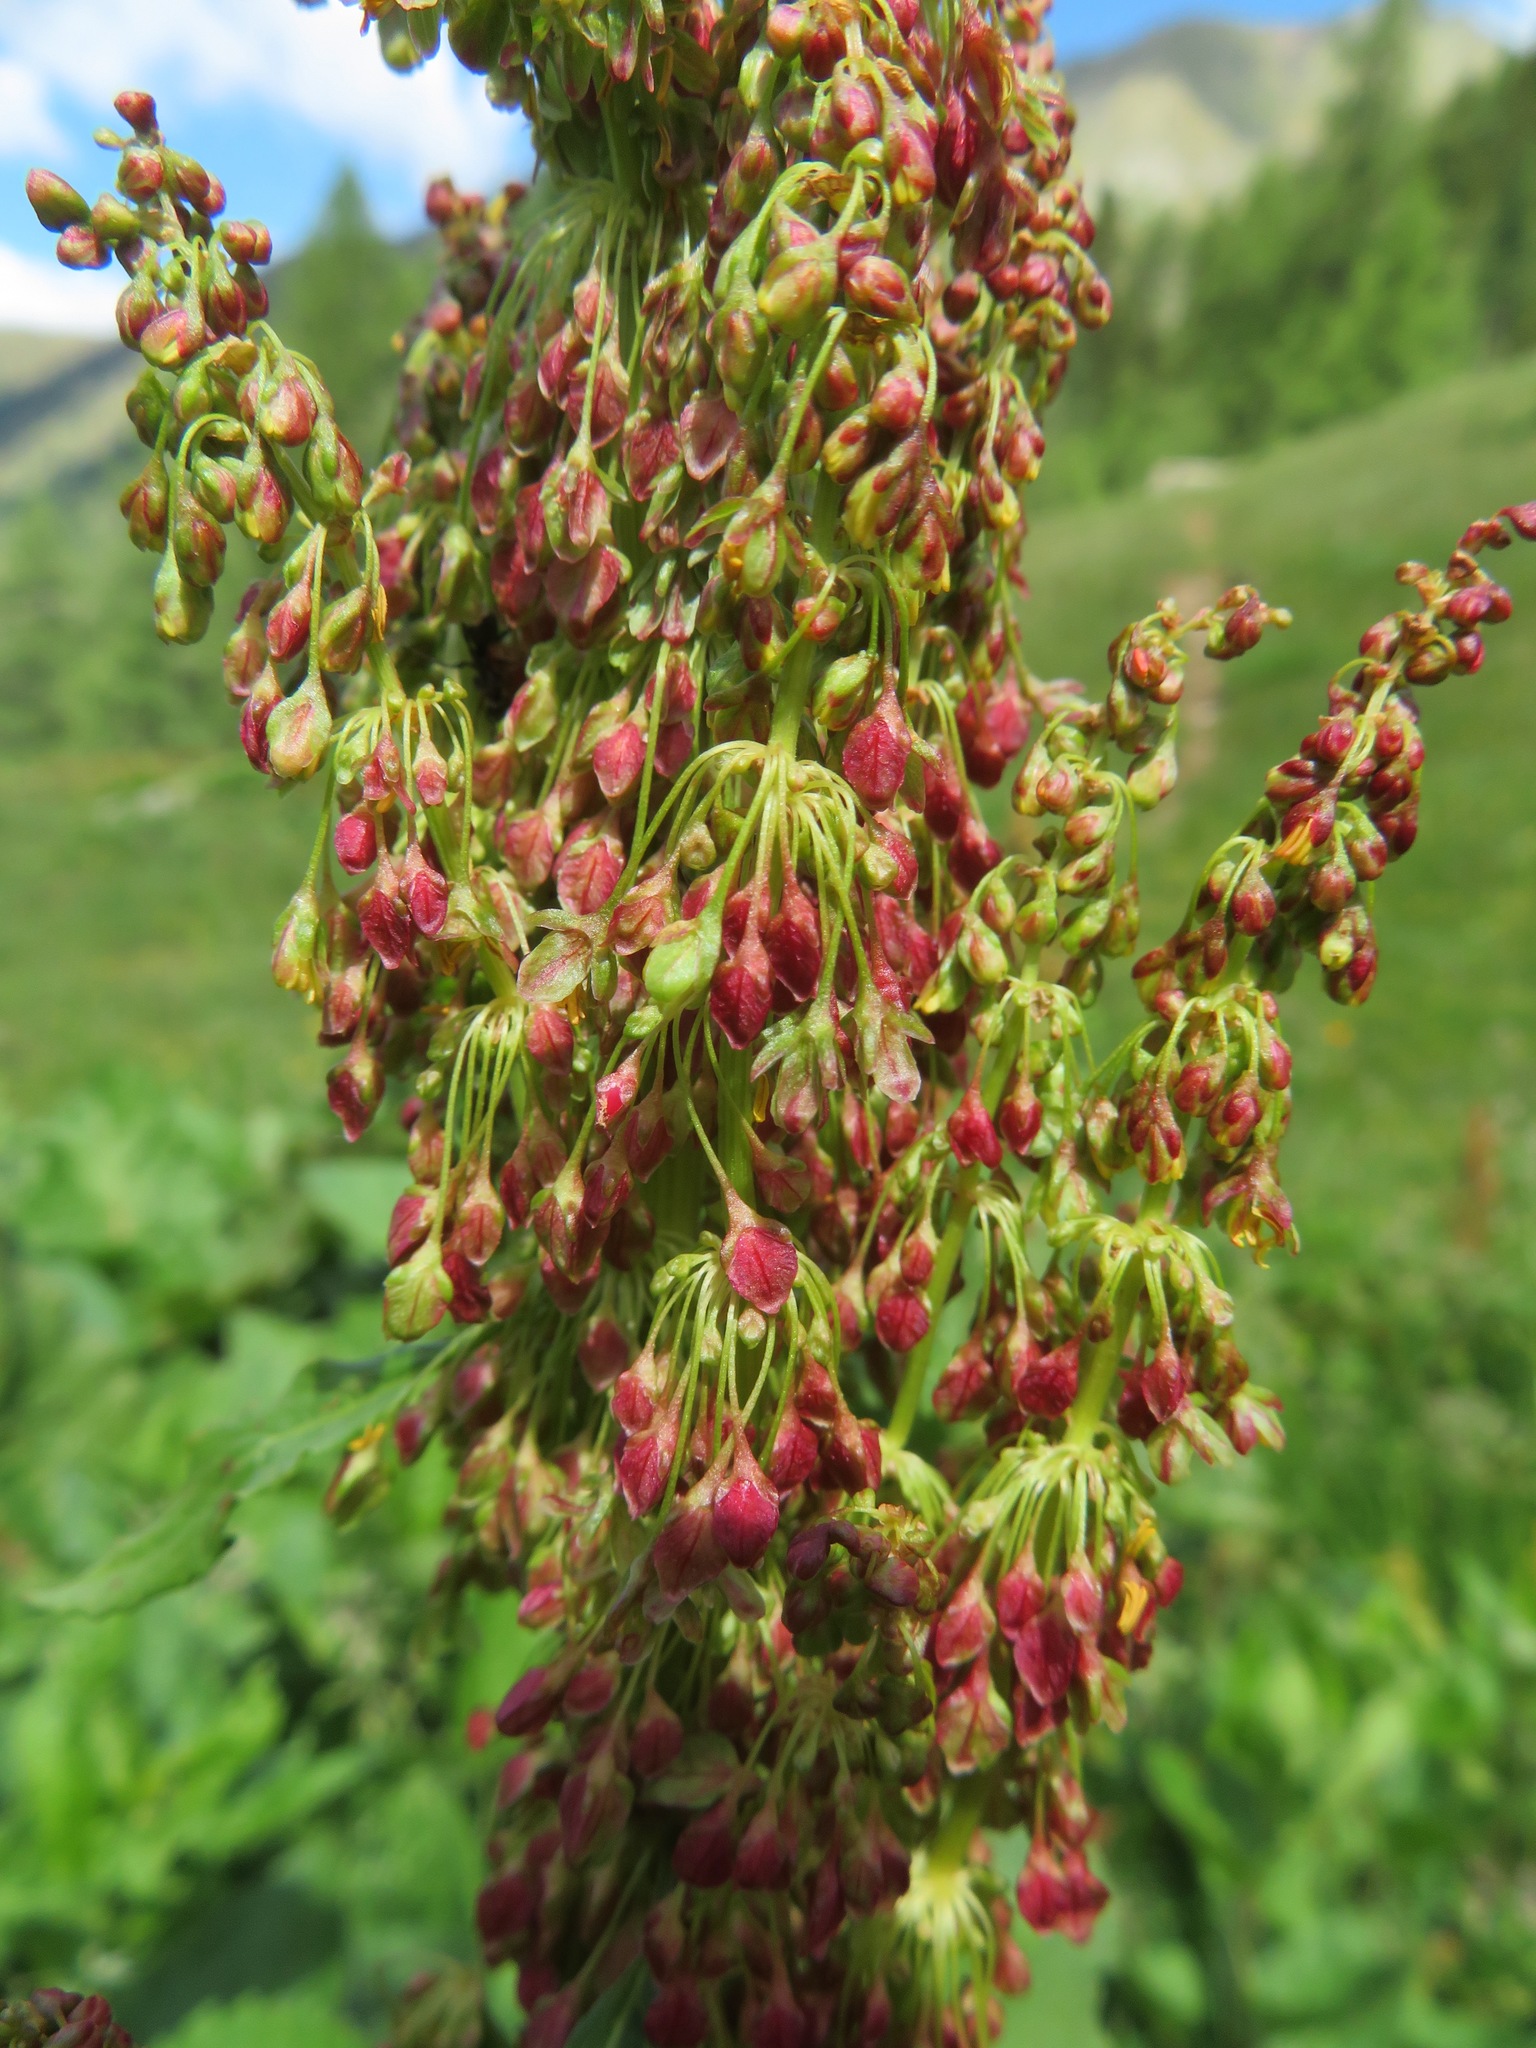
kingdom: Plantae
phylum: Tracheophyta
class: Magnoliopsida
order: Caryophyllales
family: Polygonaceae
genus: Rumex
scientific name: Rumex alpinus
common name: Alpine dock
